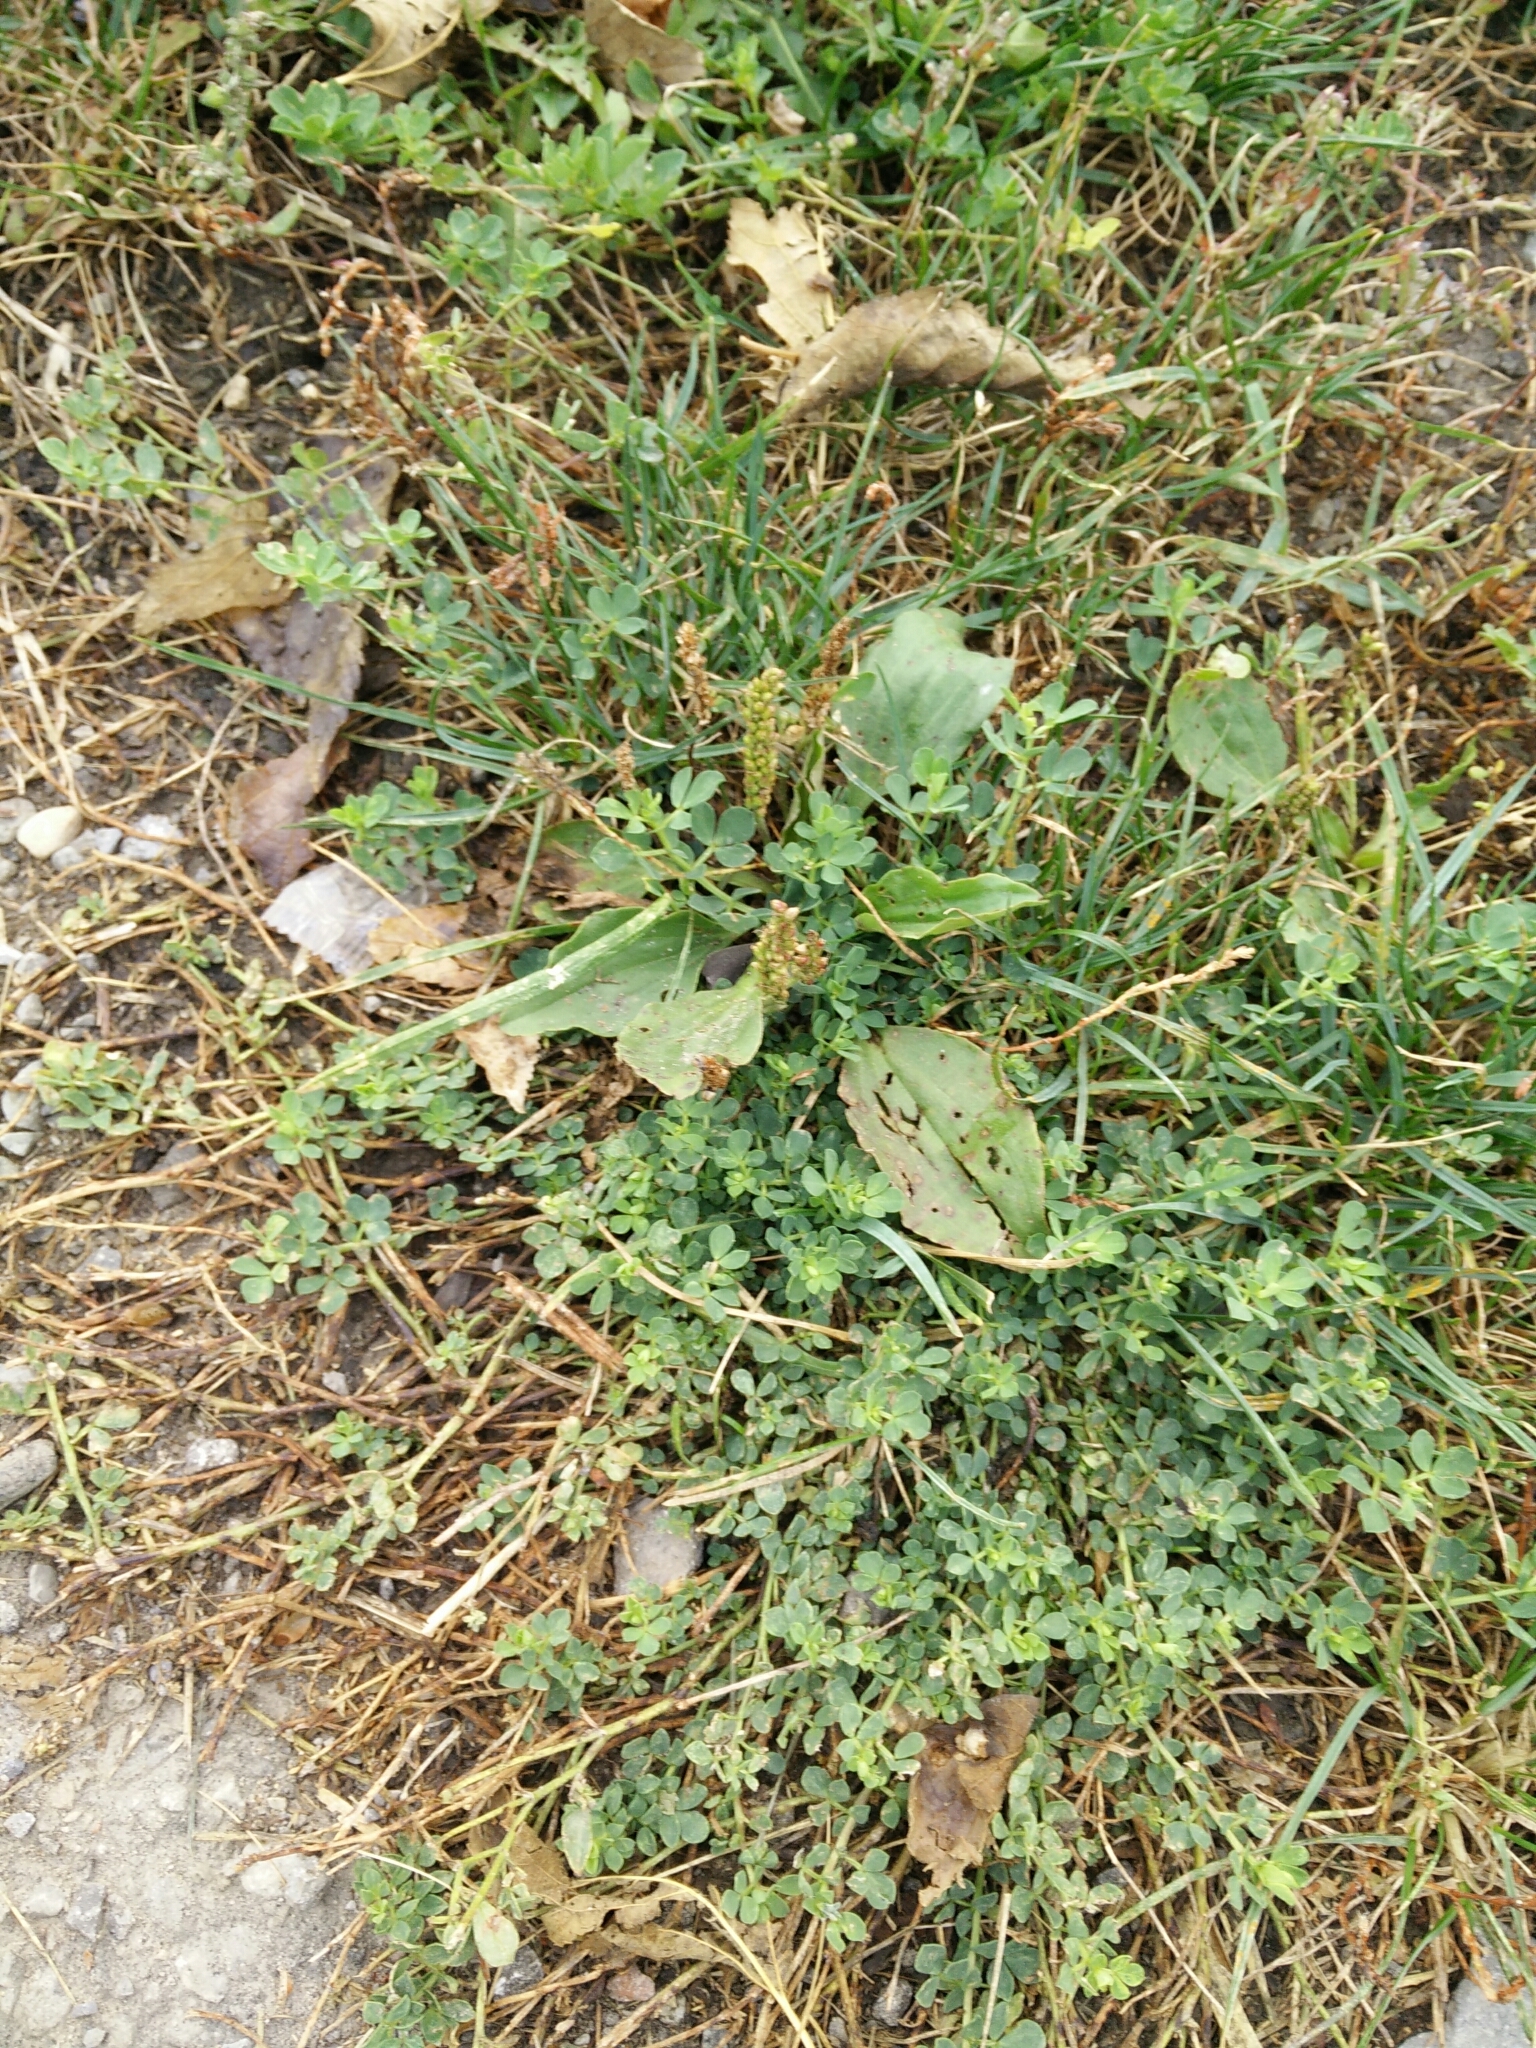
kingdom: Plantae
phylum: Tracheophyta
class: Magnoliopsida
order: Lamiales
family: Plantaginaceae
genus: Plantago
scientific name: Plantago major
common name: Common plantain
